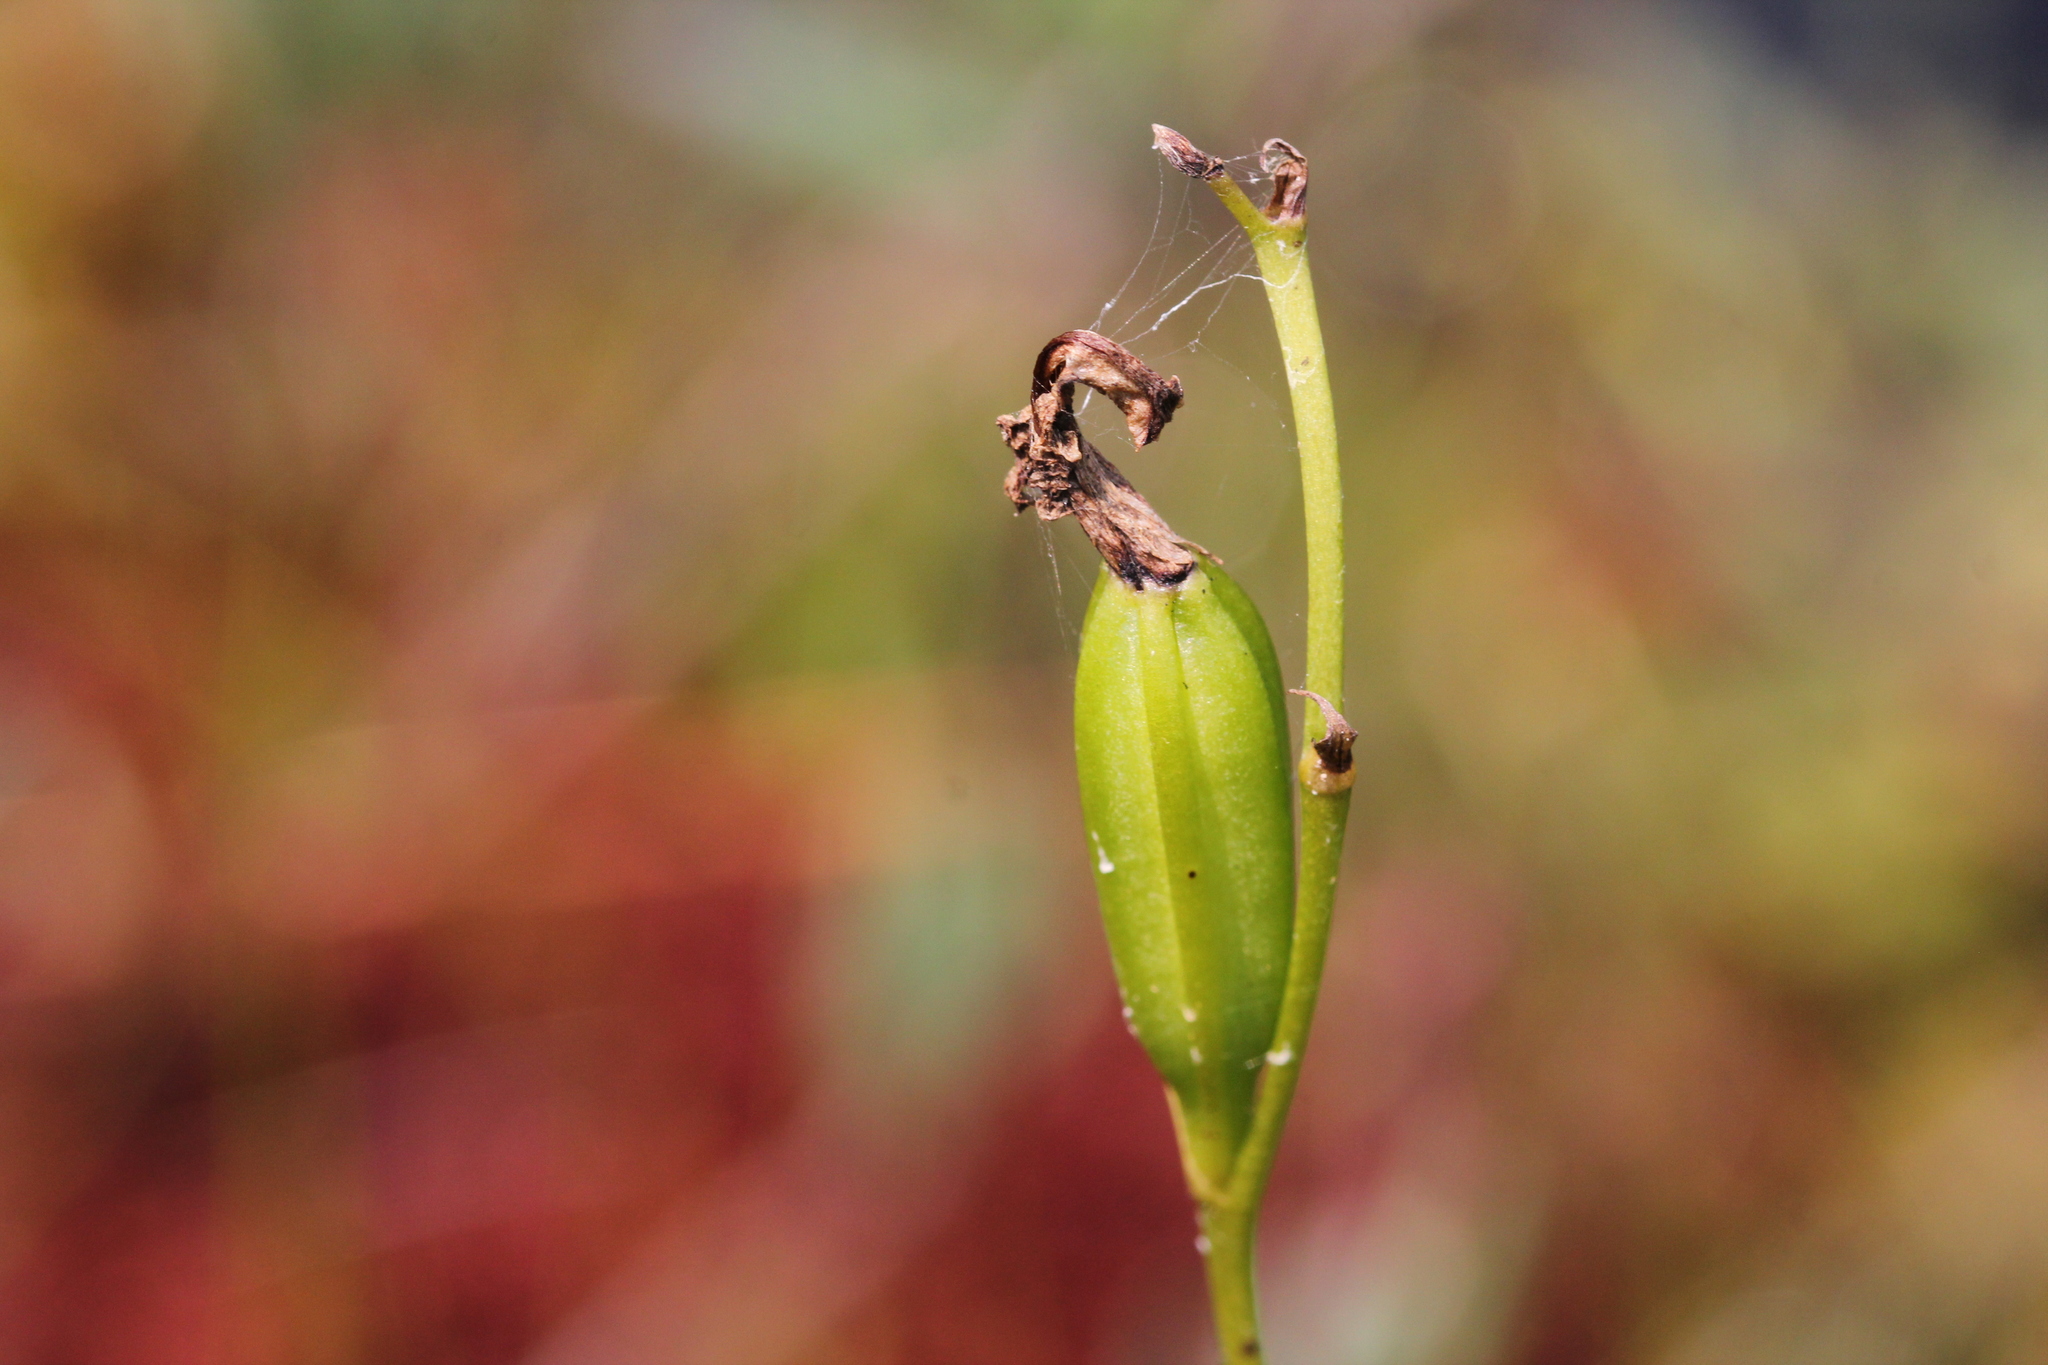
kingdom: Plantae
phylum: Tracheophyta
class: Liliopsida
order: Asparagales
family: Orchidaceae
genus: Calopogon
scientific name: Calopogon tuberosus
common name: Grass-pink
